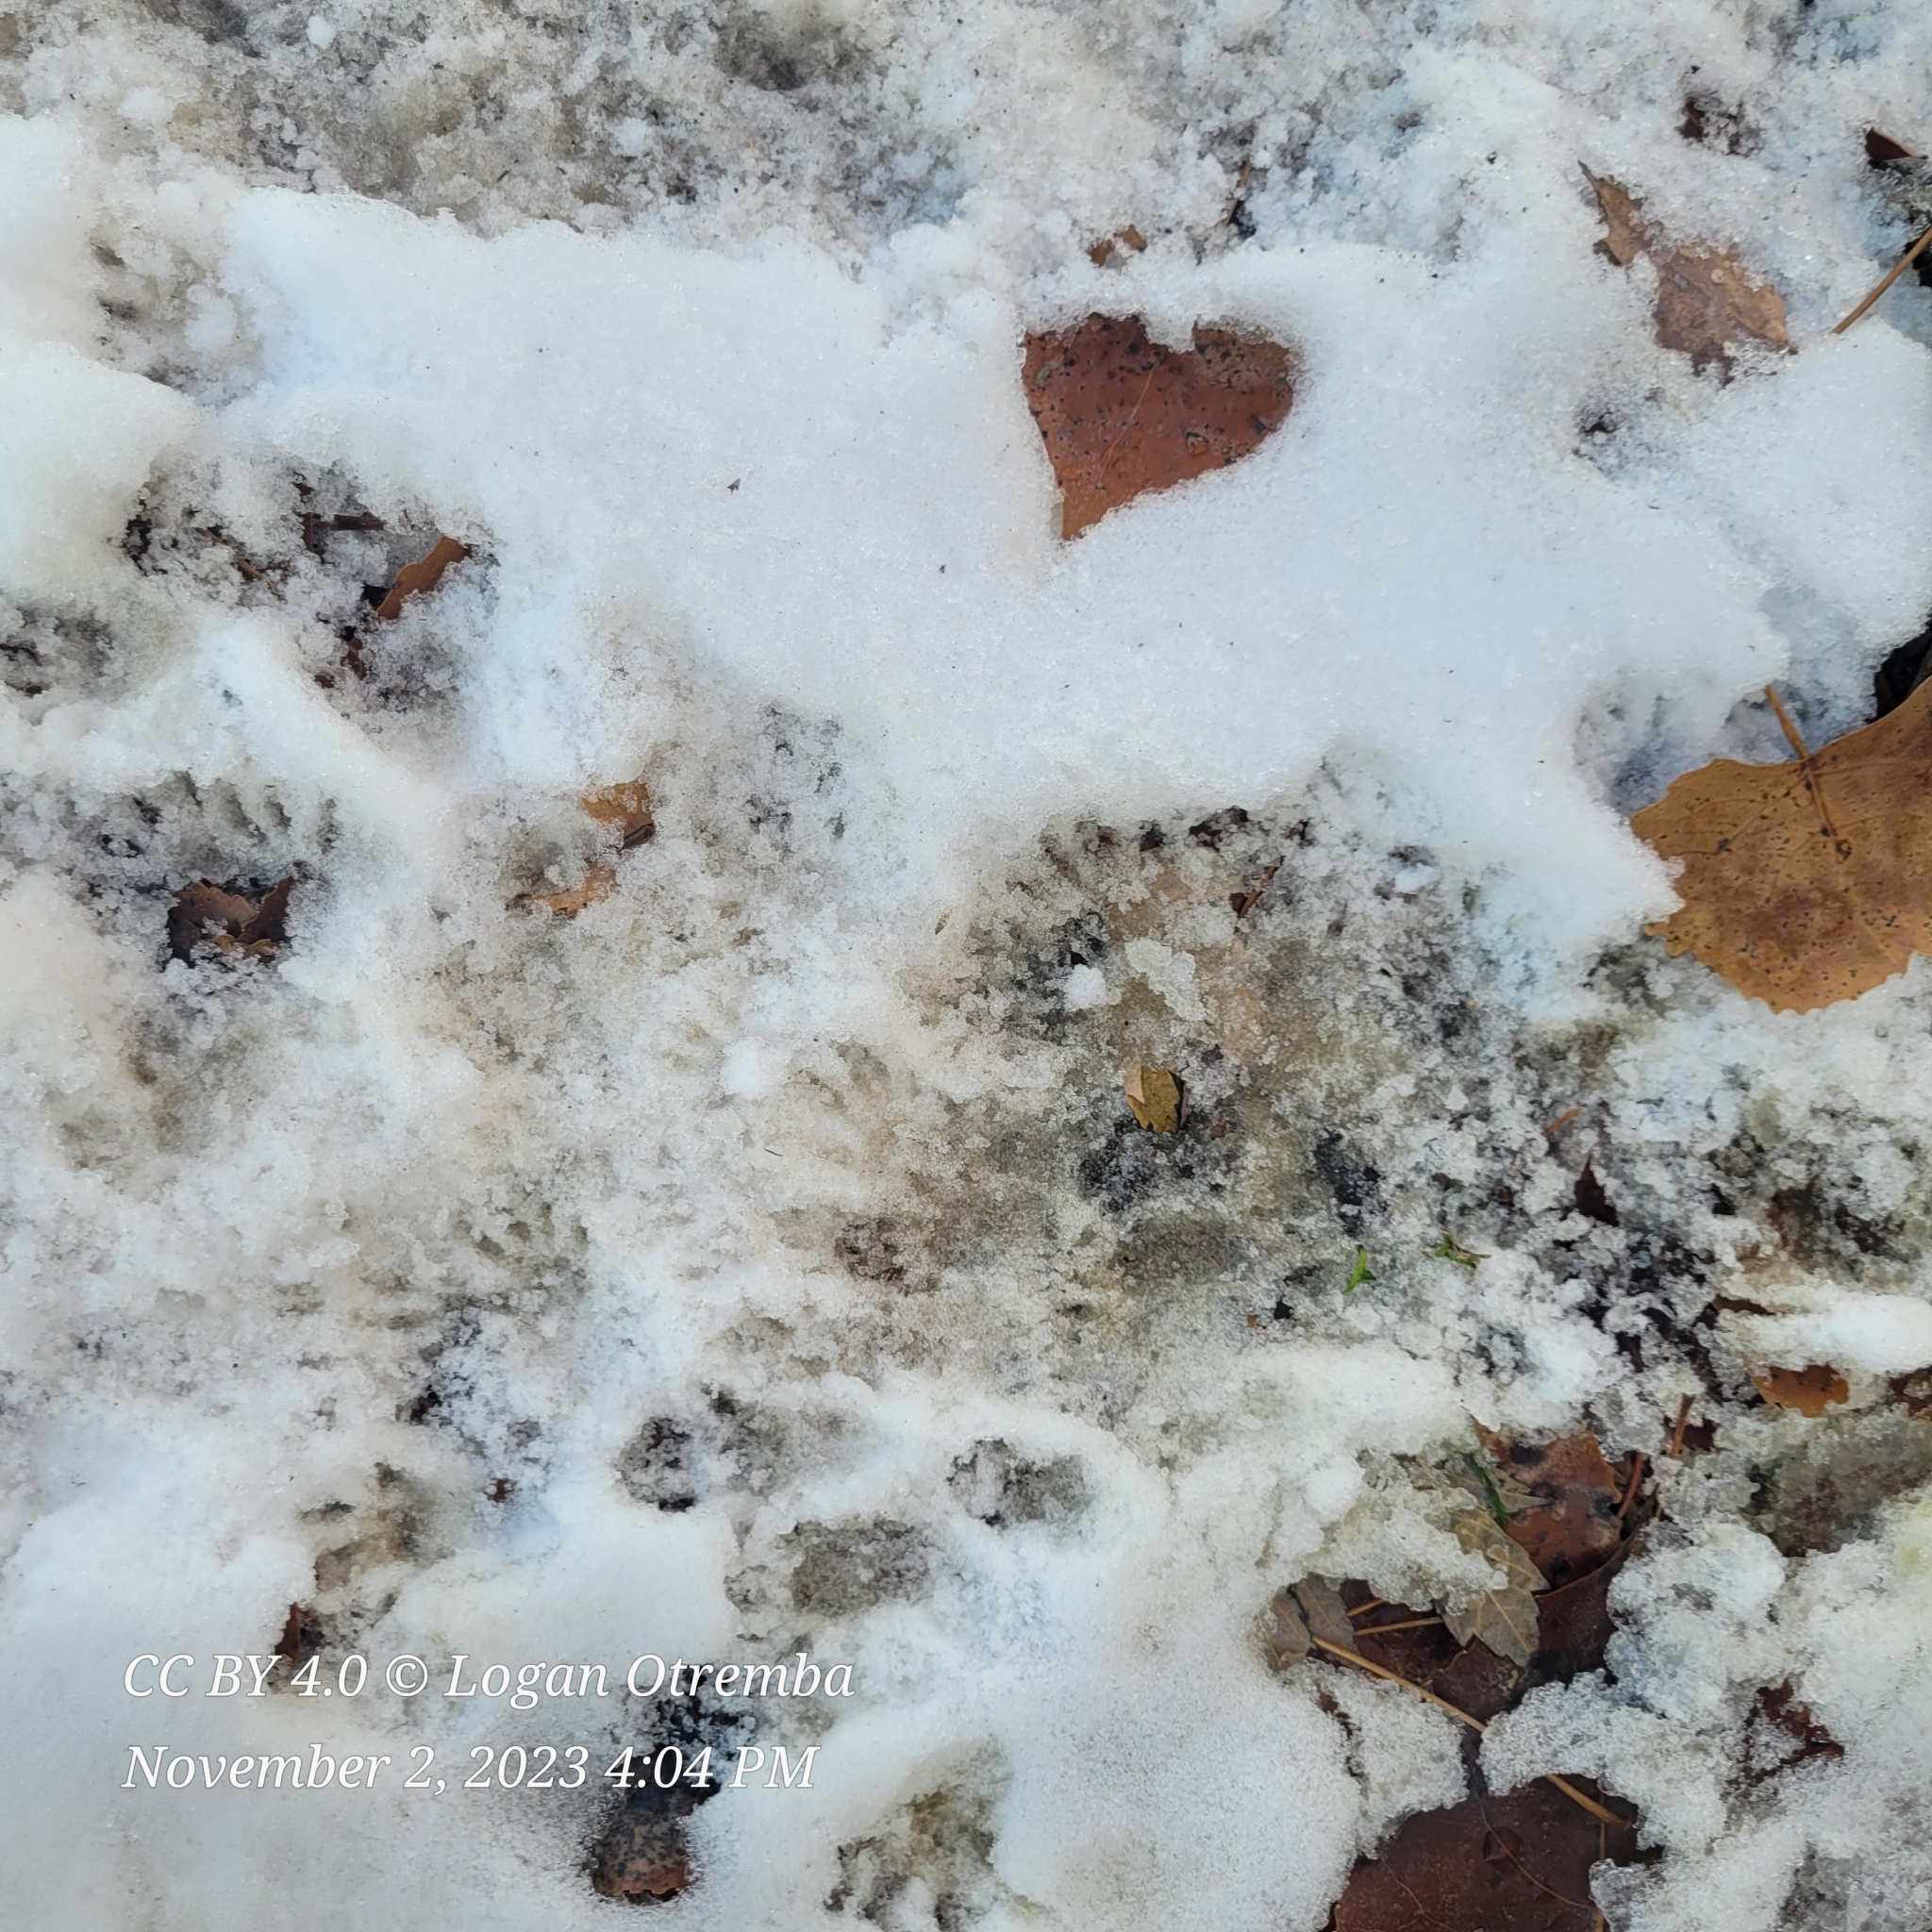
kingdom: Animalia
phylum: Chordata
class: Mammalia
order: Carnivora
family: Procyonidae
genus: Procyon
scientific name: Procyon lotor
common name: Raccoon
